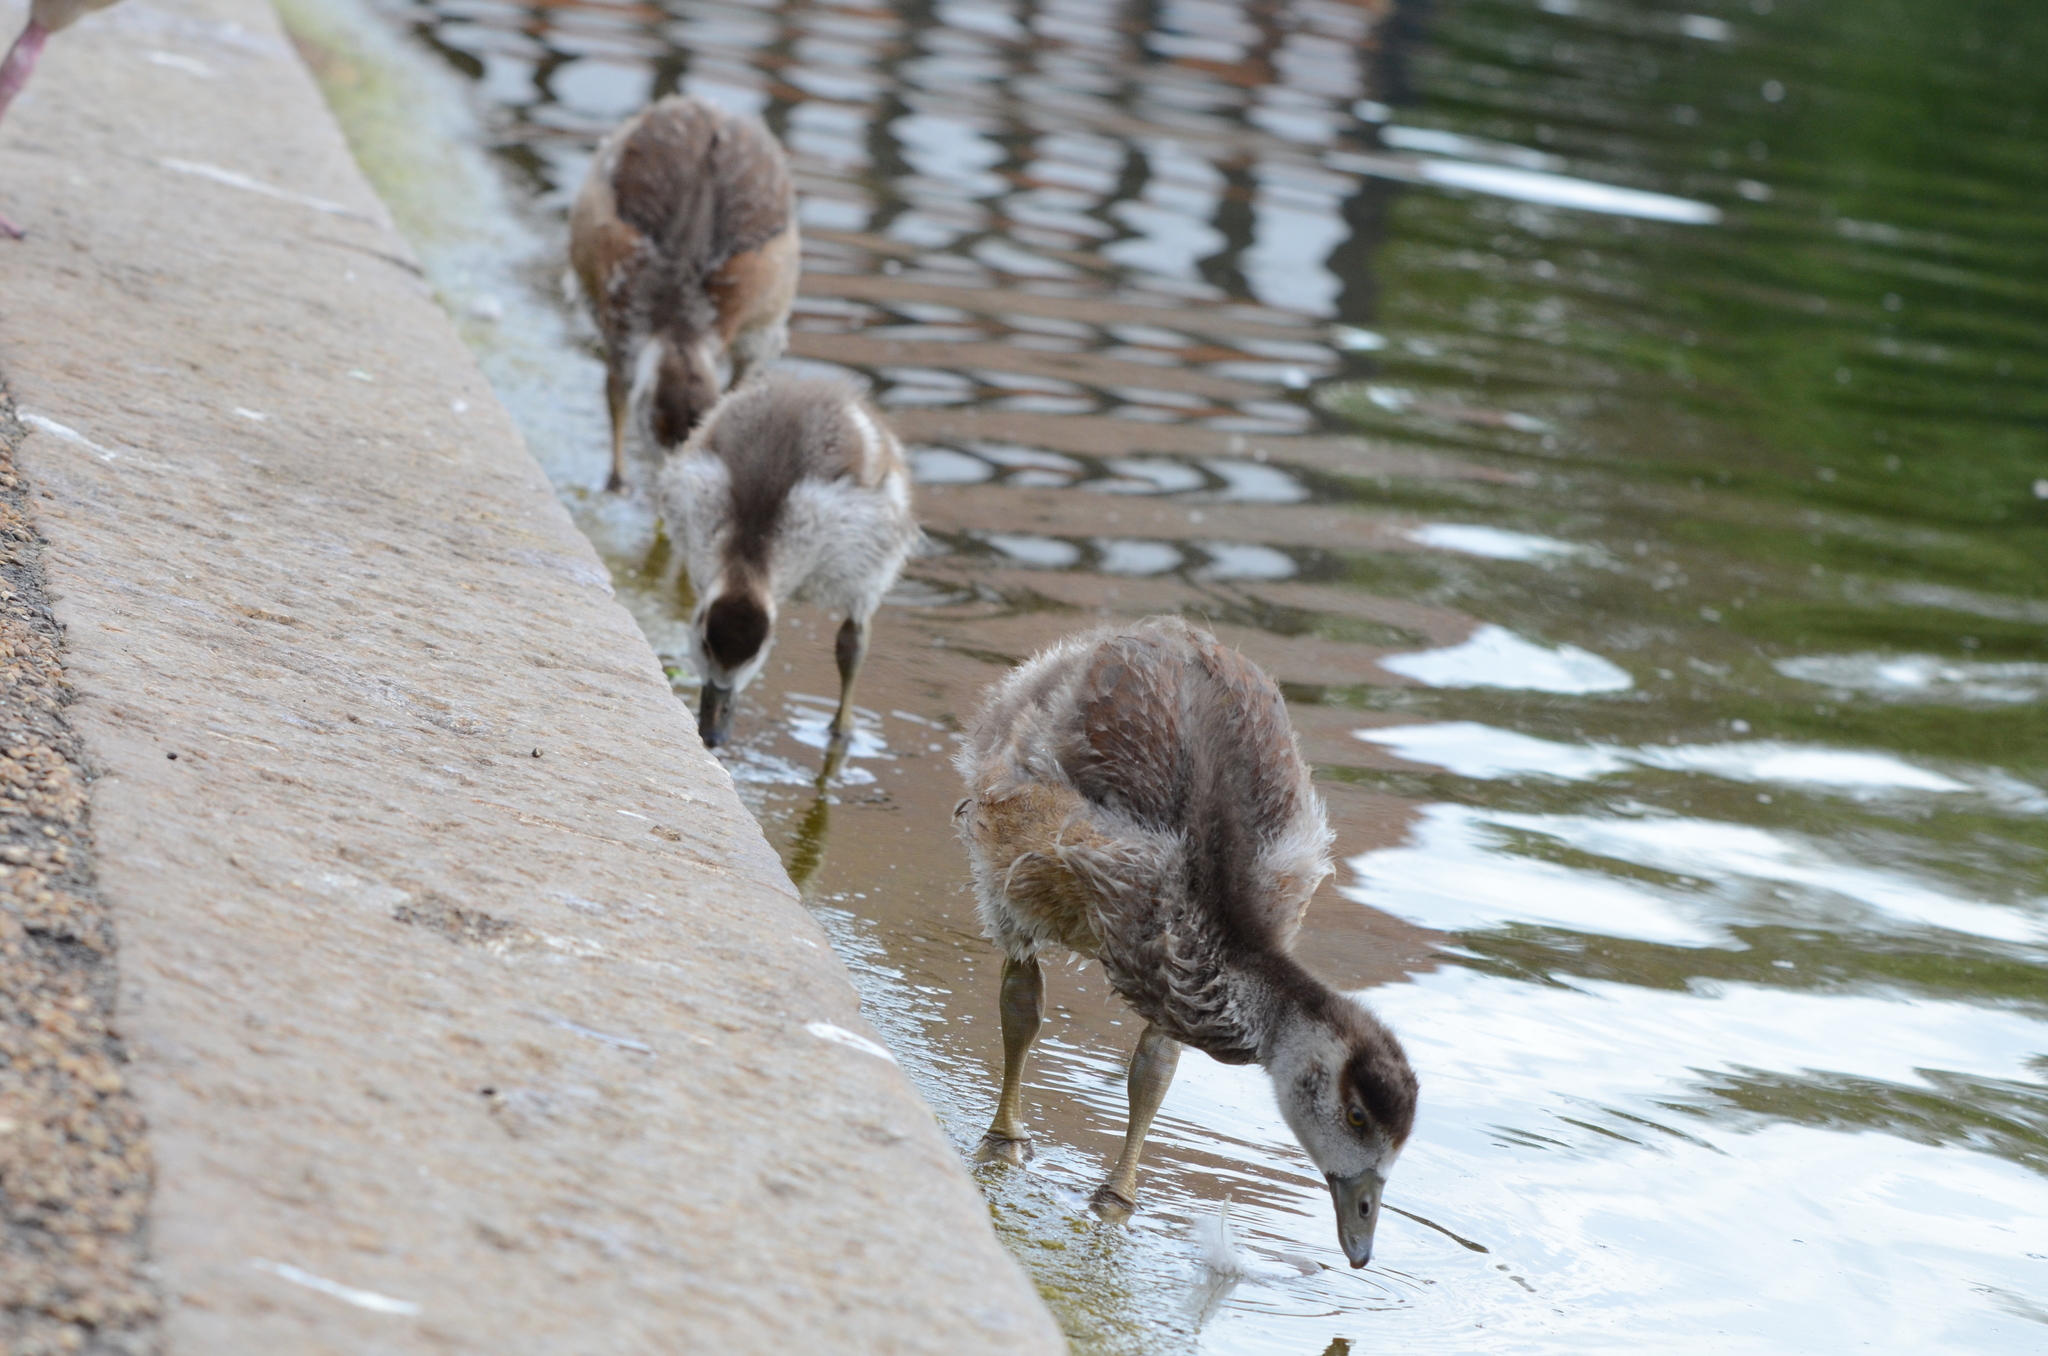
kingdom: Animalia
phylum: Chordata
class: Aves
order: Anseriformes
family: Anatidae
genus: Alopochen
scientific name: Alopochen aegyptiaca
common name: Egyptian goose
